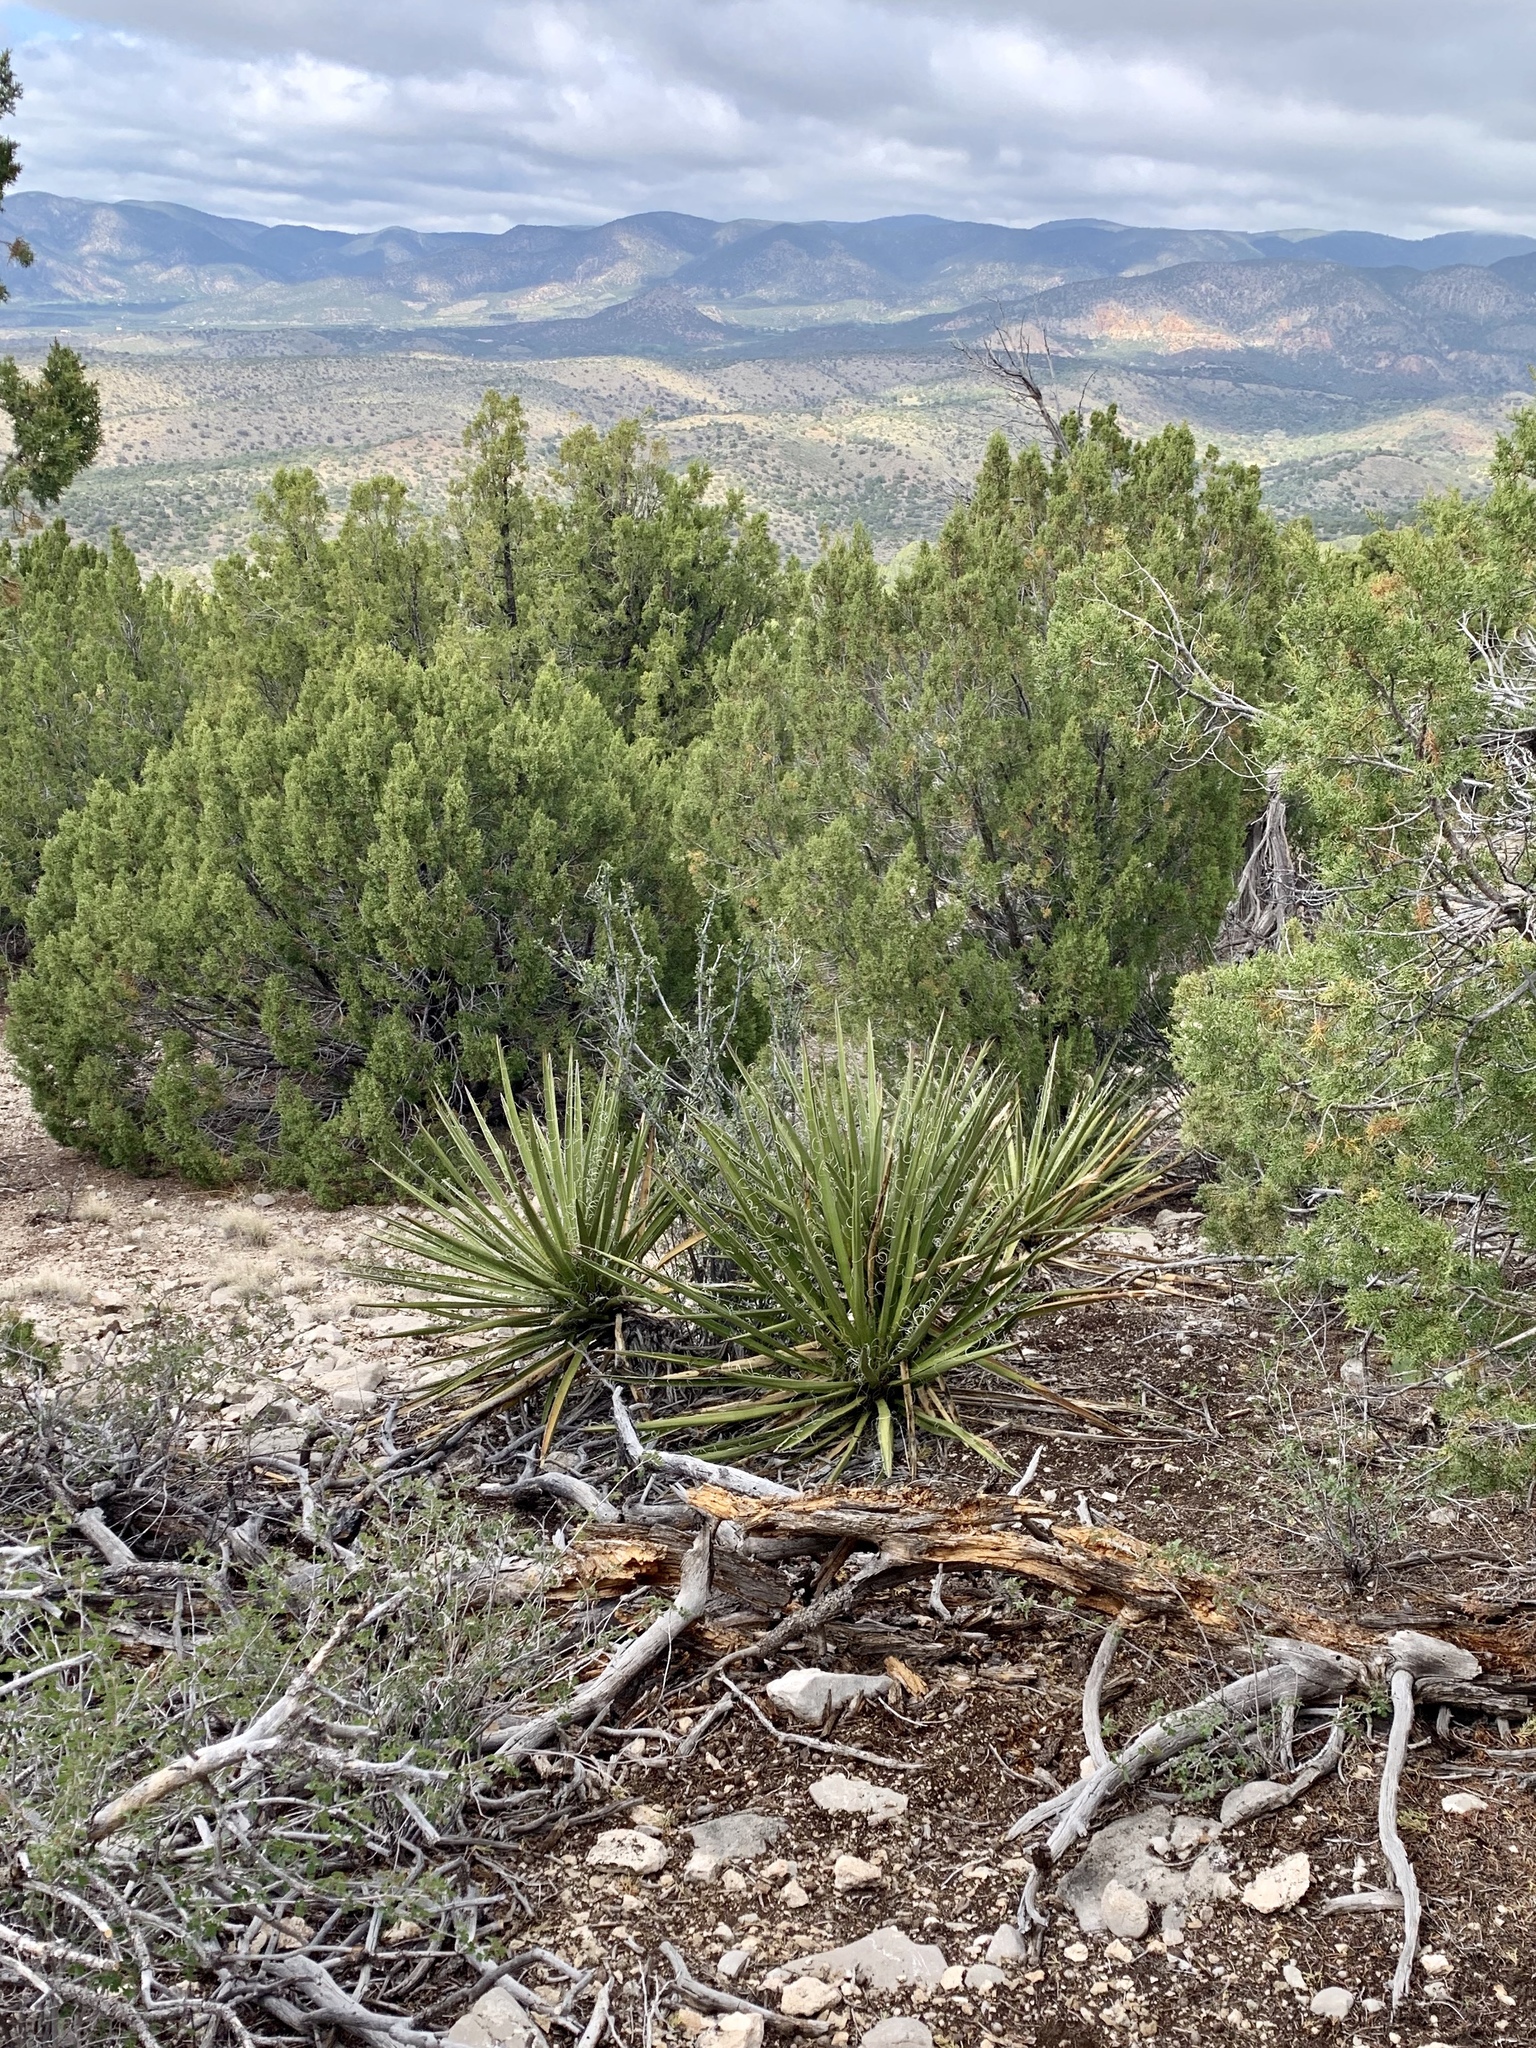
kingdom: Plantae
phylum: Tracheophyta
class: Liliopsida
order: Asparagales
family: Asparagaceae
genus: Yucca
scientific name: Yucca baccata
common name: Banana yucca
